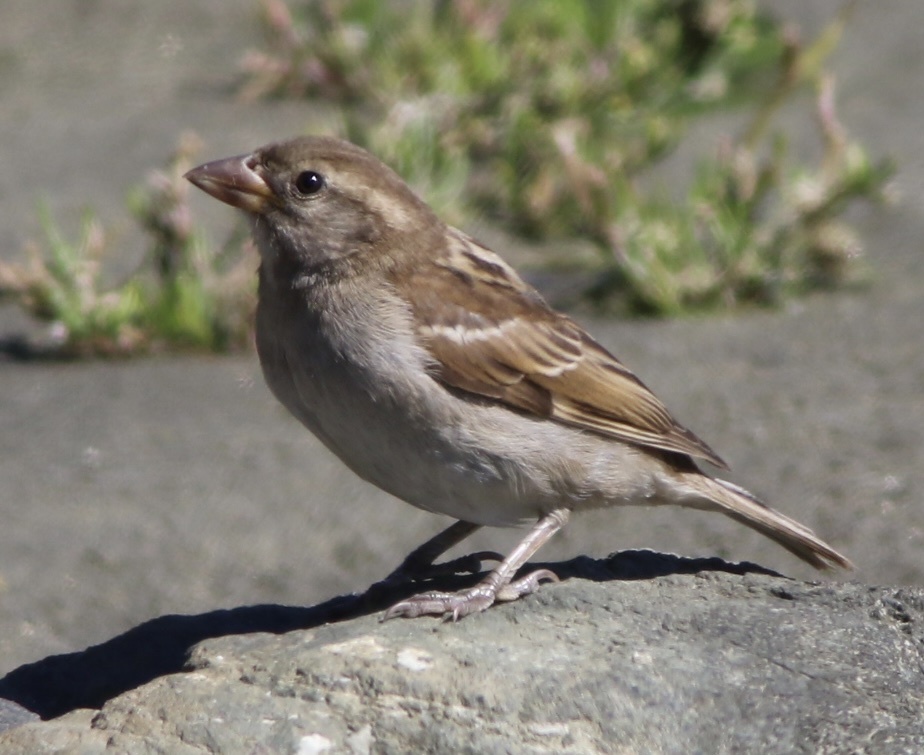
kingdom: Animalia
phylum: Chordata
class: Aves
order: Passeriformes
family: Passeridae
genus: Passer
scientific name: Passer domesticus
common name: House sparrow
